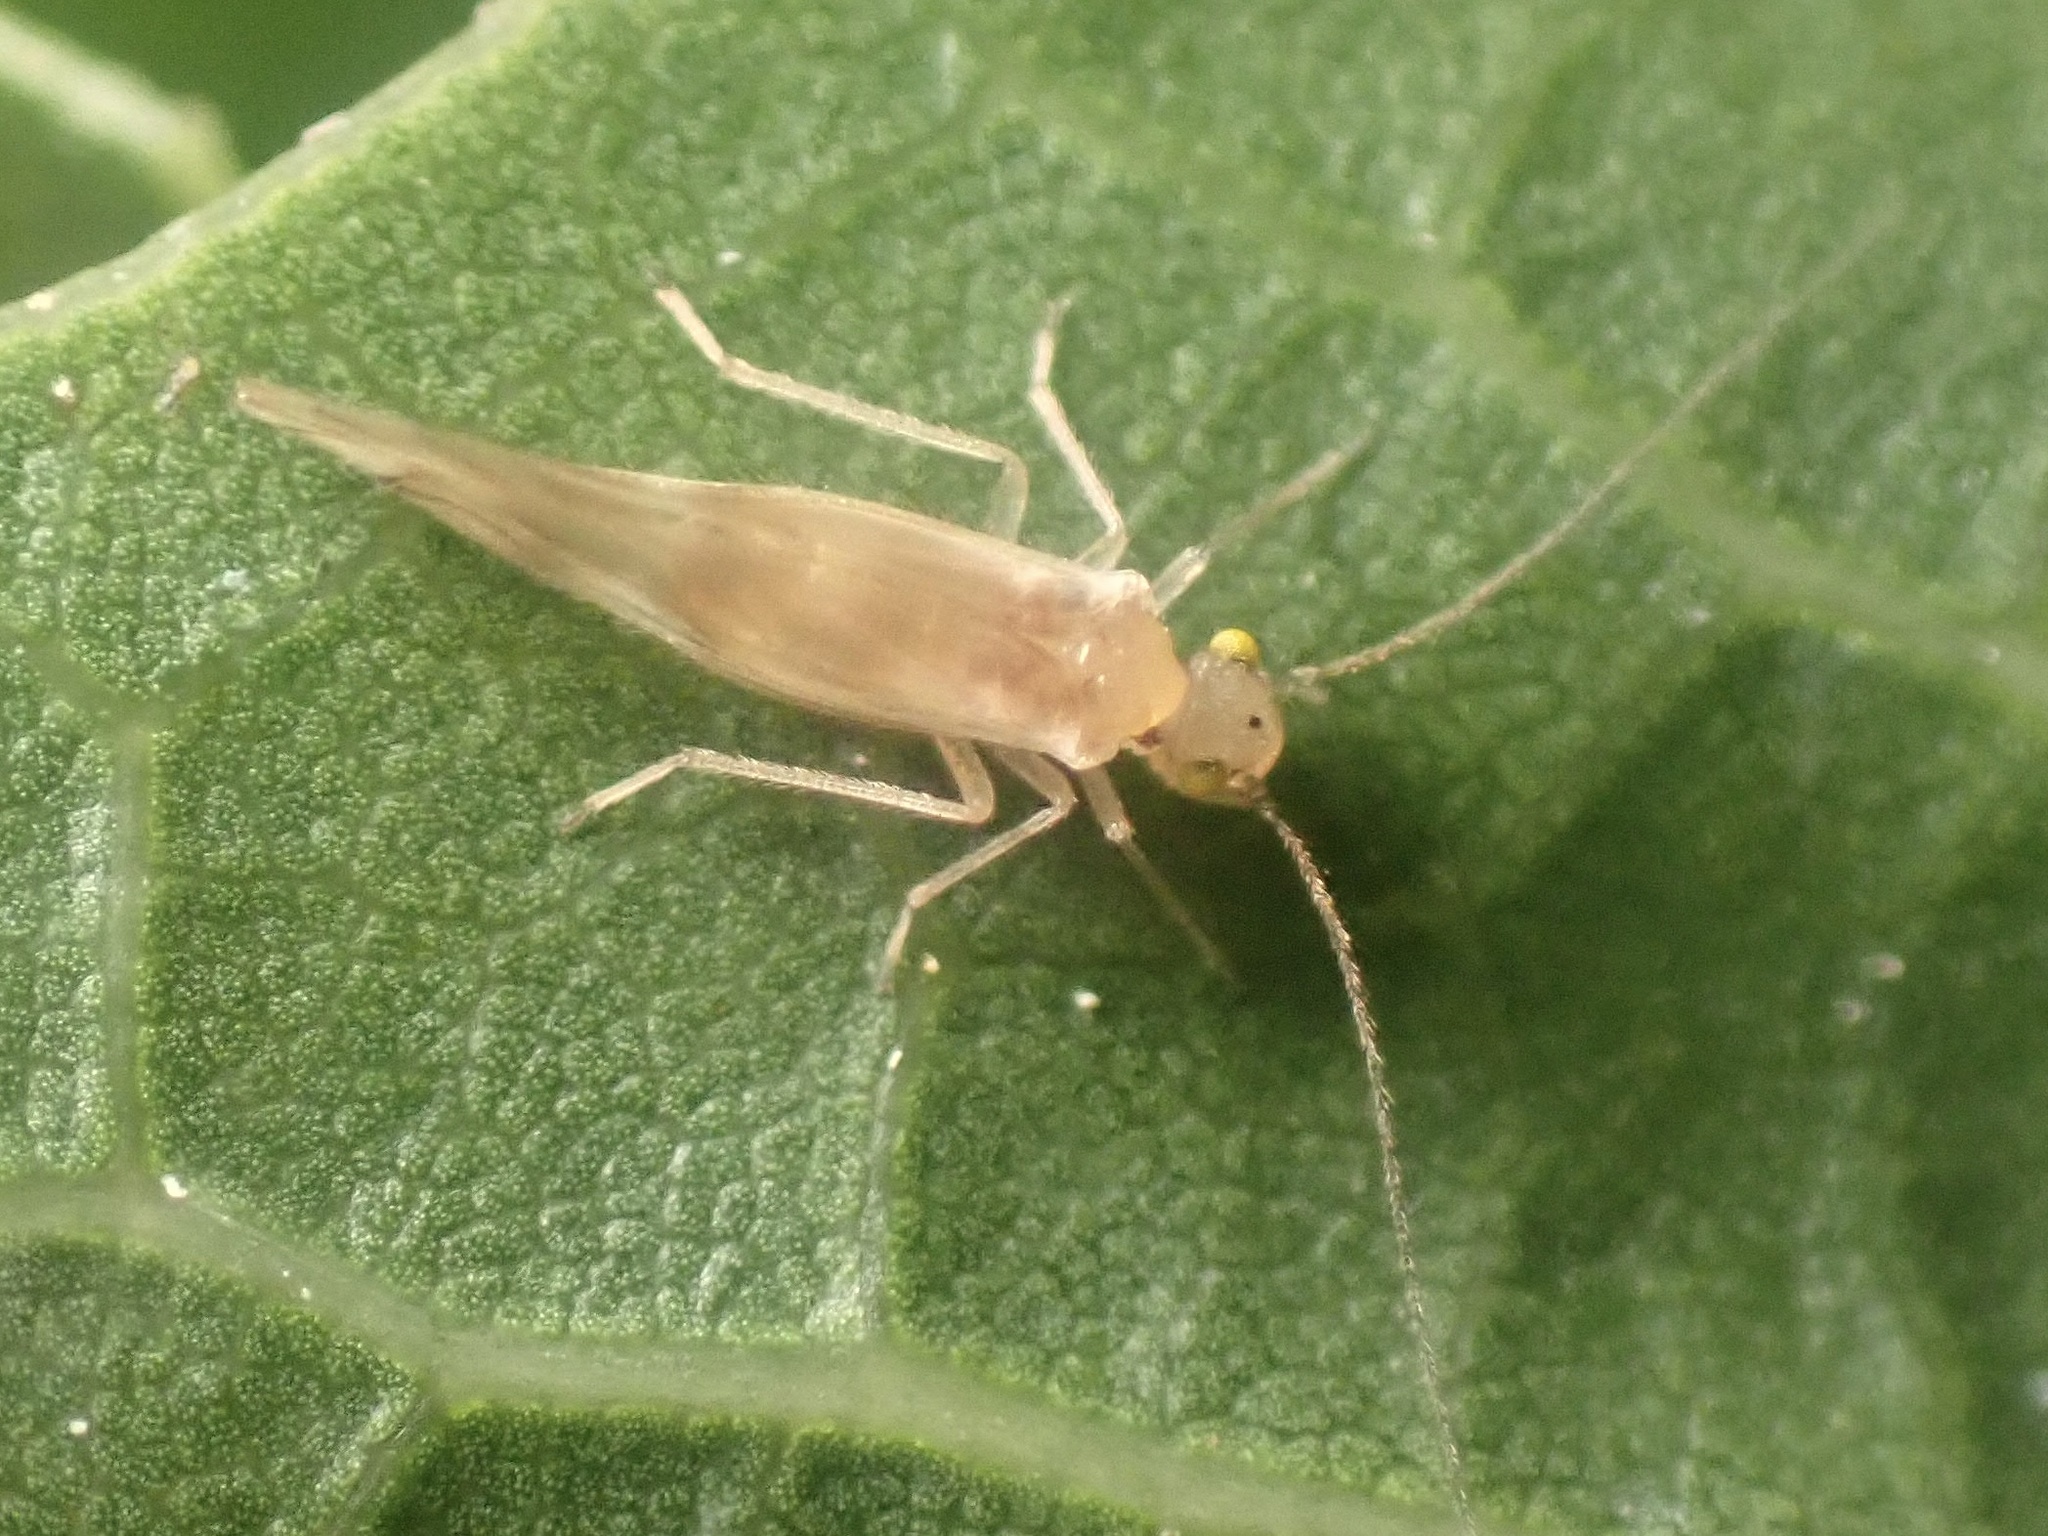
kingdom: Animalia
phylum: Arthropoda
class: Insecta
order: Psocodea
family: Trichopsocidae
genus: Trichopsocus
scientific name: Trichopsocus clarus
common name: Lash-faced psocid
